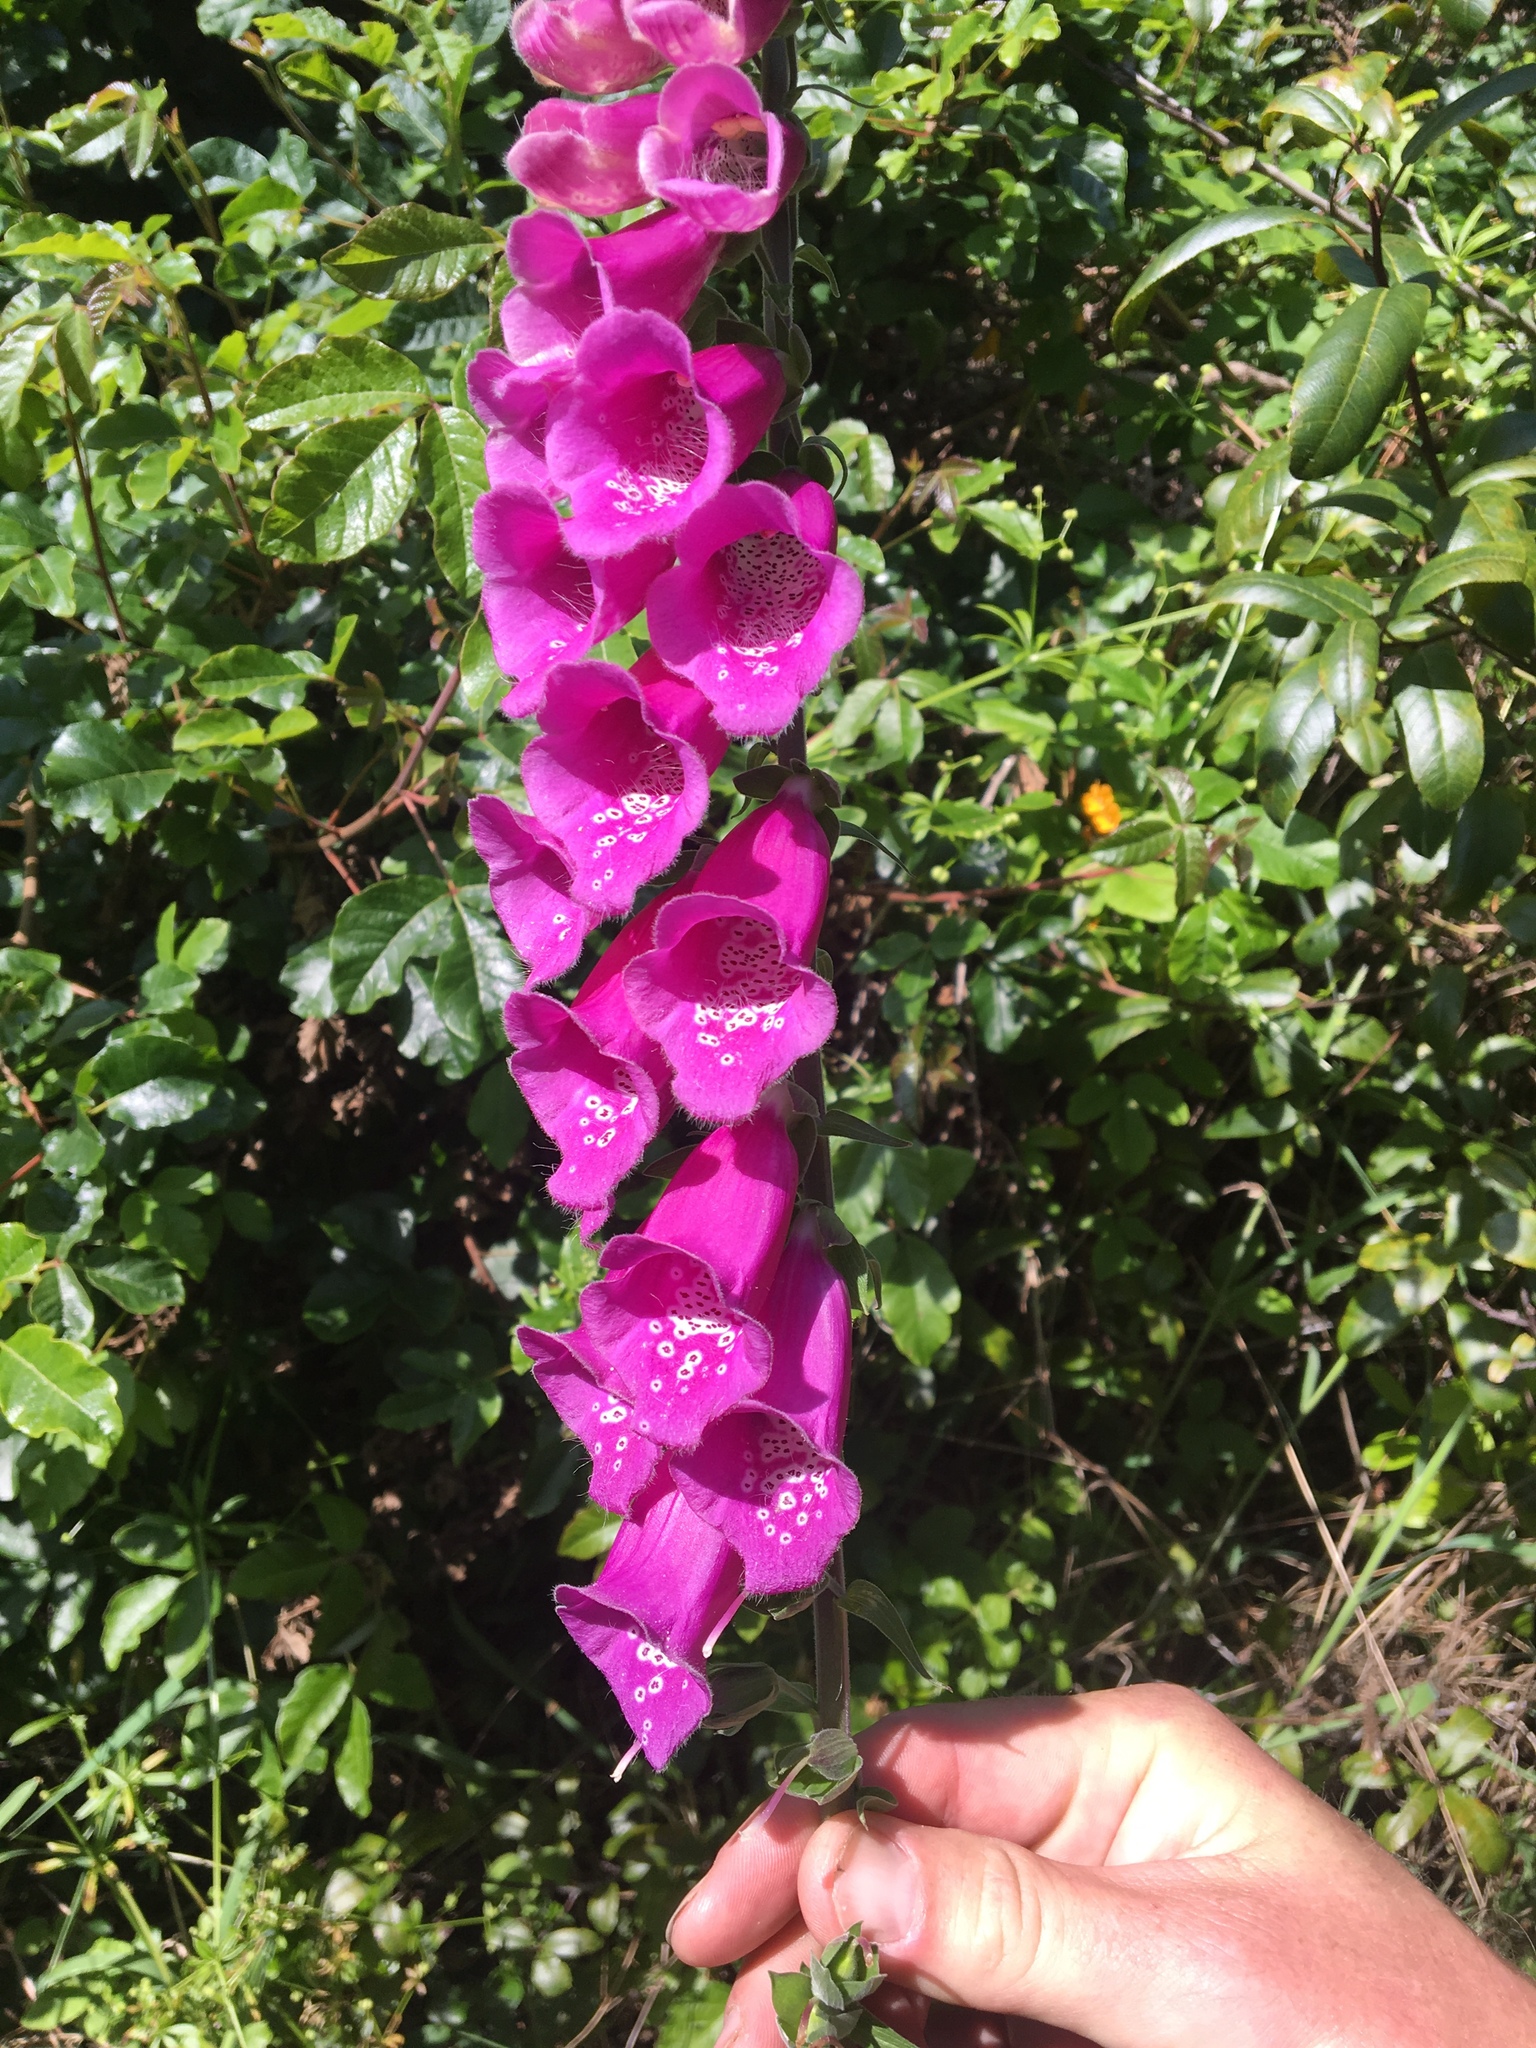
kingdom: Plantae
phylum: Tracheophyta
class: Magnoliopsida
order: Lamiales
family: Plantaginaceae
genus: Digitalis
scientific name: Digitalis purpurea
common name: Foxglove
